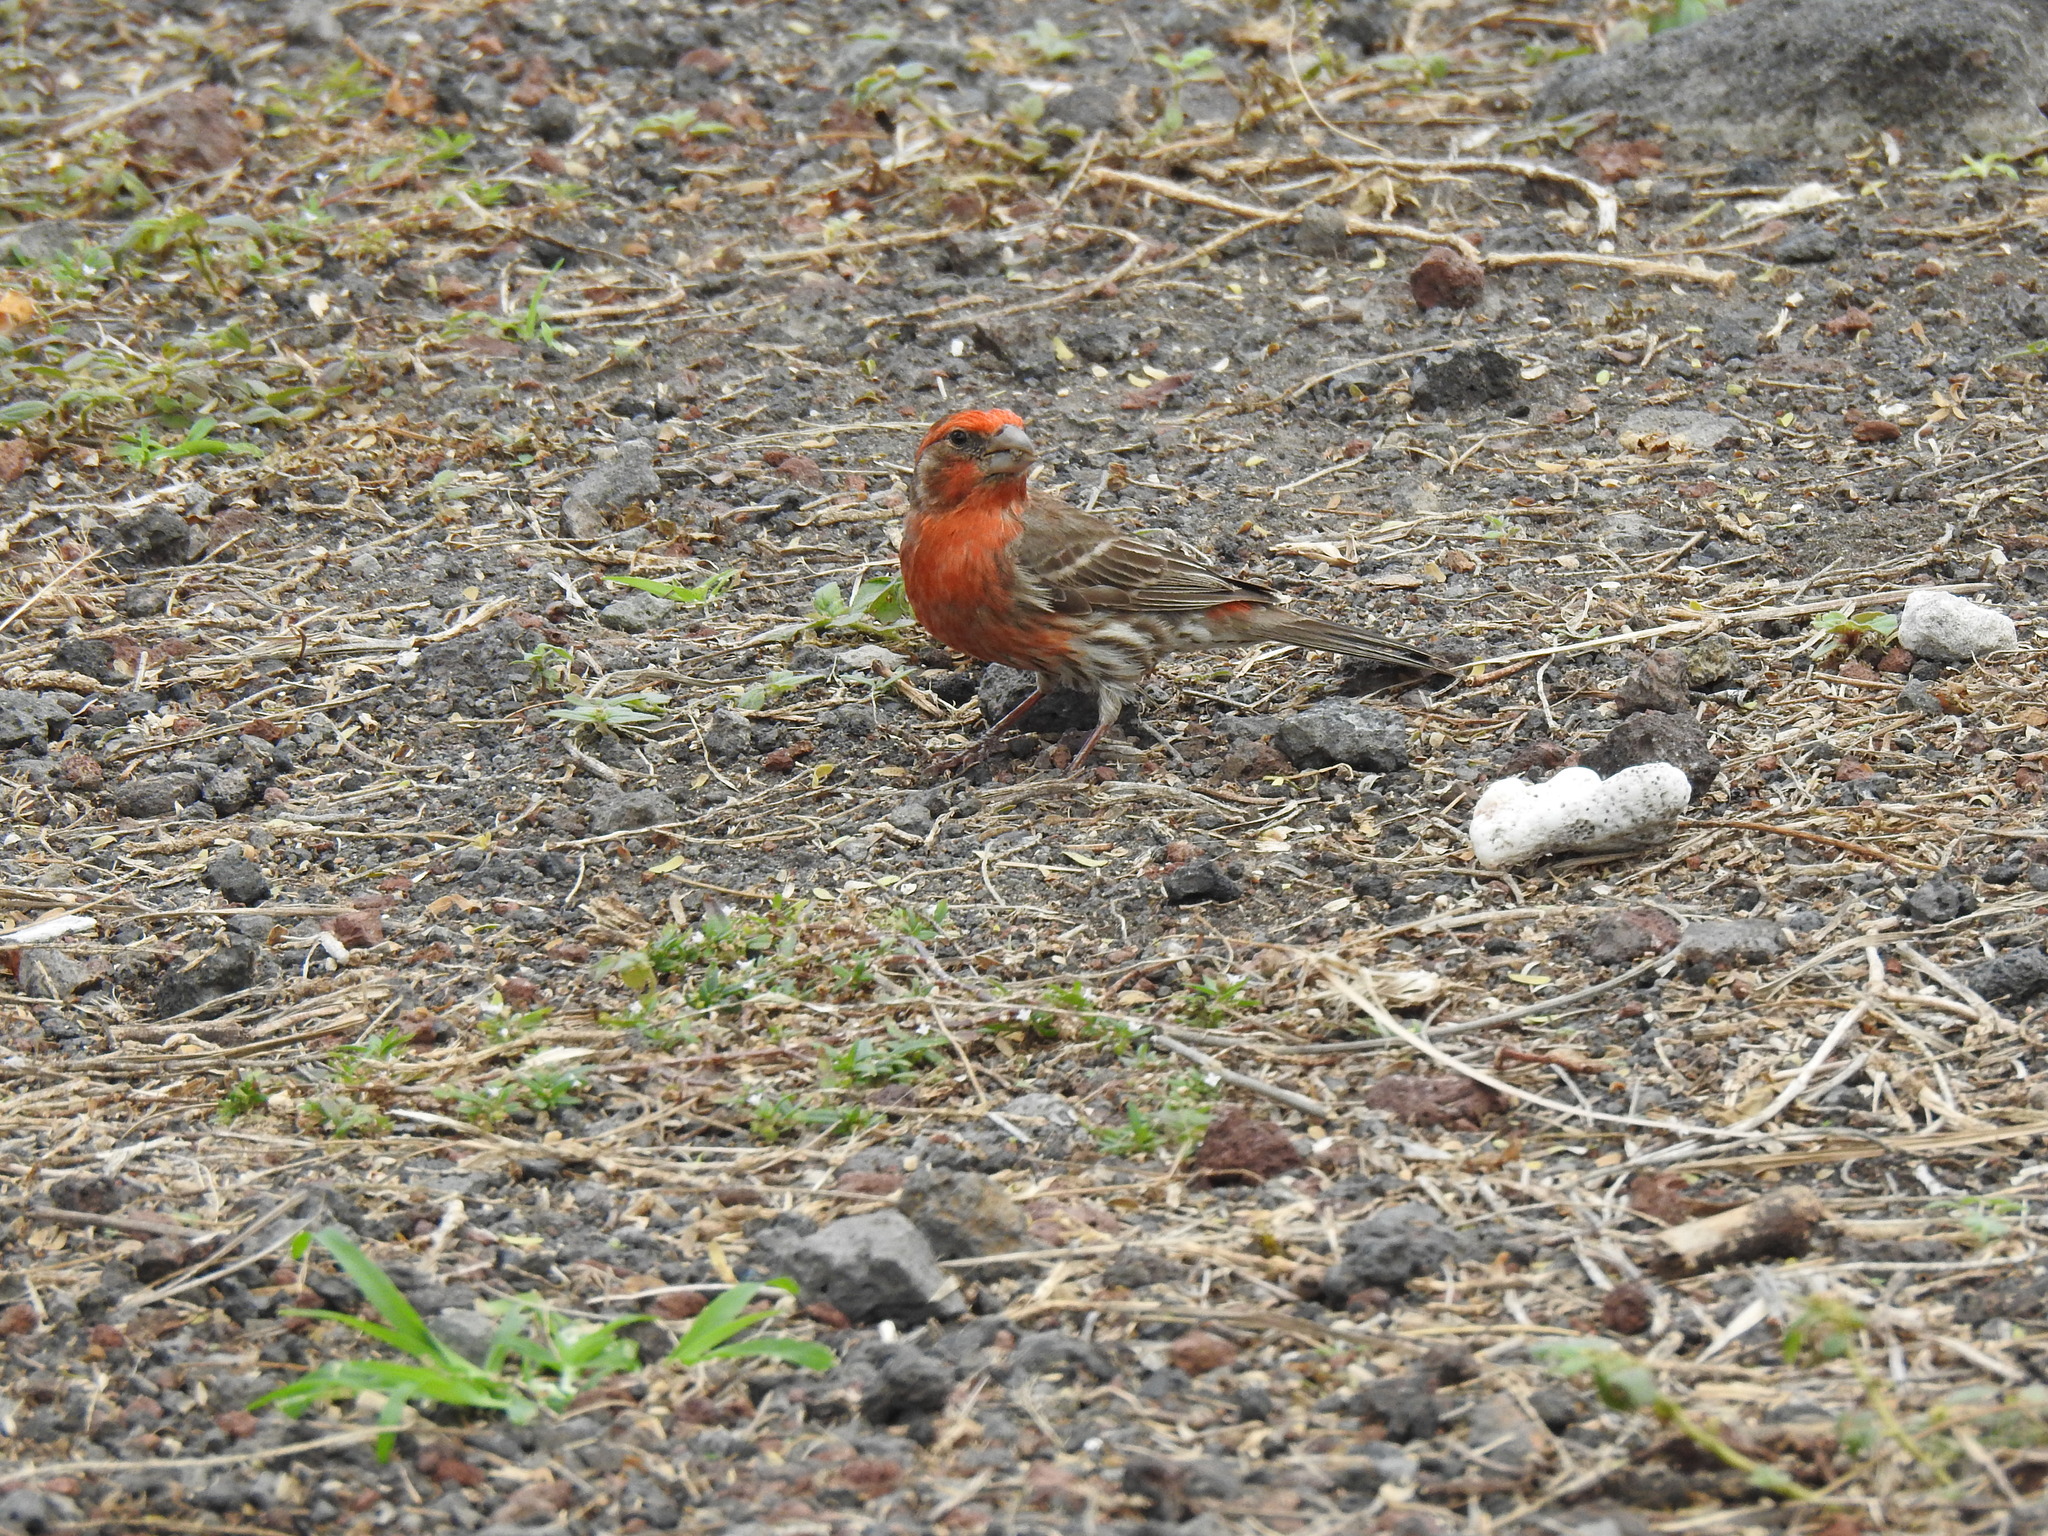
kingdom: Animalia
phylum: Chordata
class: Aves
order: Passeriformes
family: Fringillidae
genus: Haemorhous
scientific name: Haemorhous mexicanus
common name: House finch
